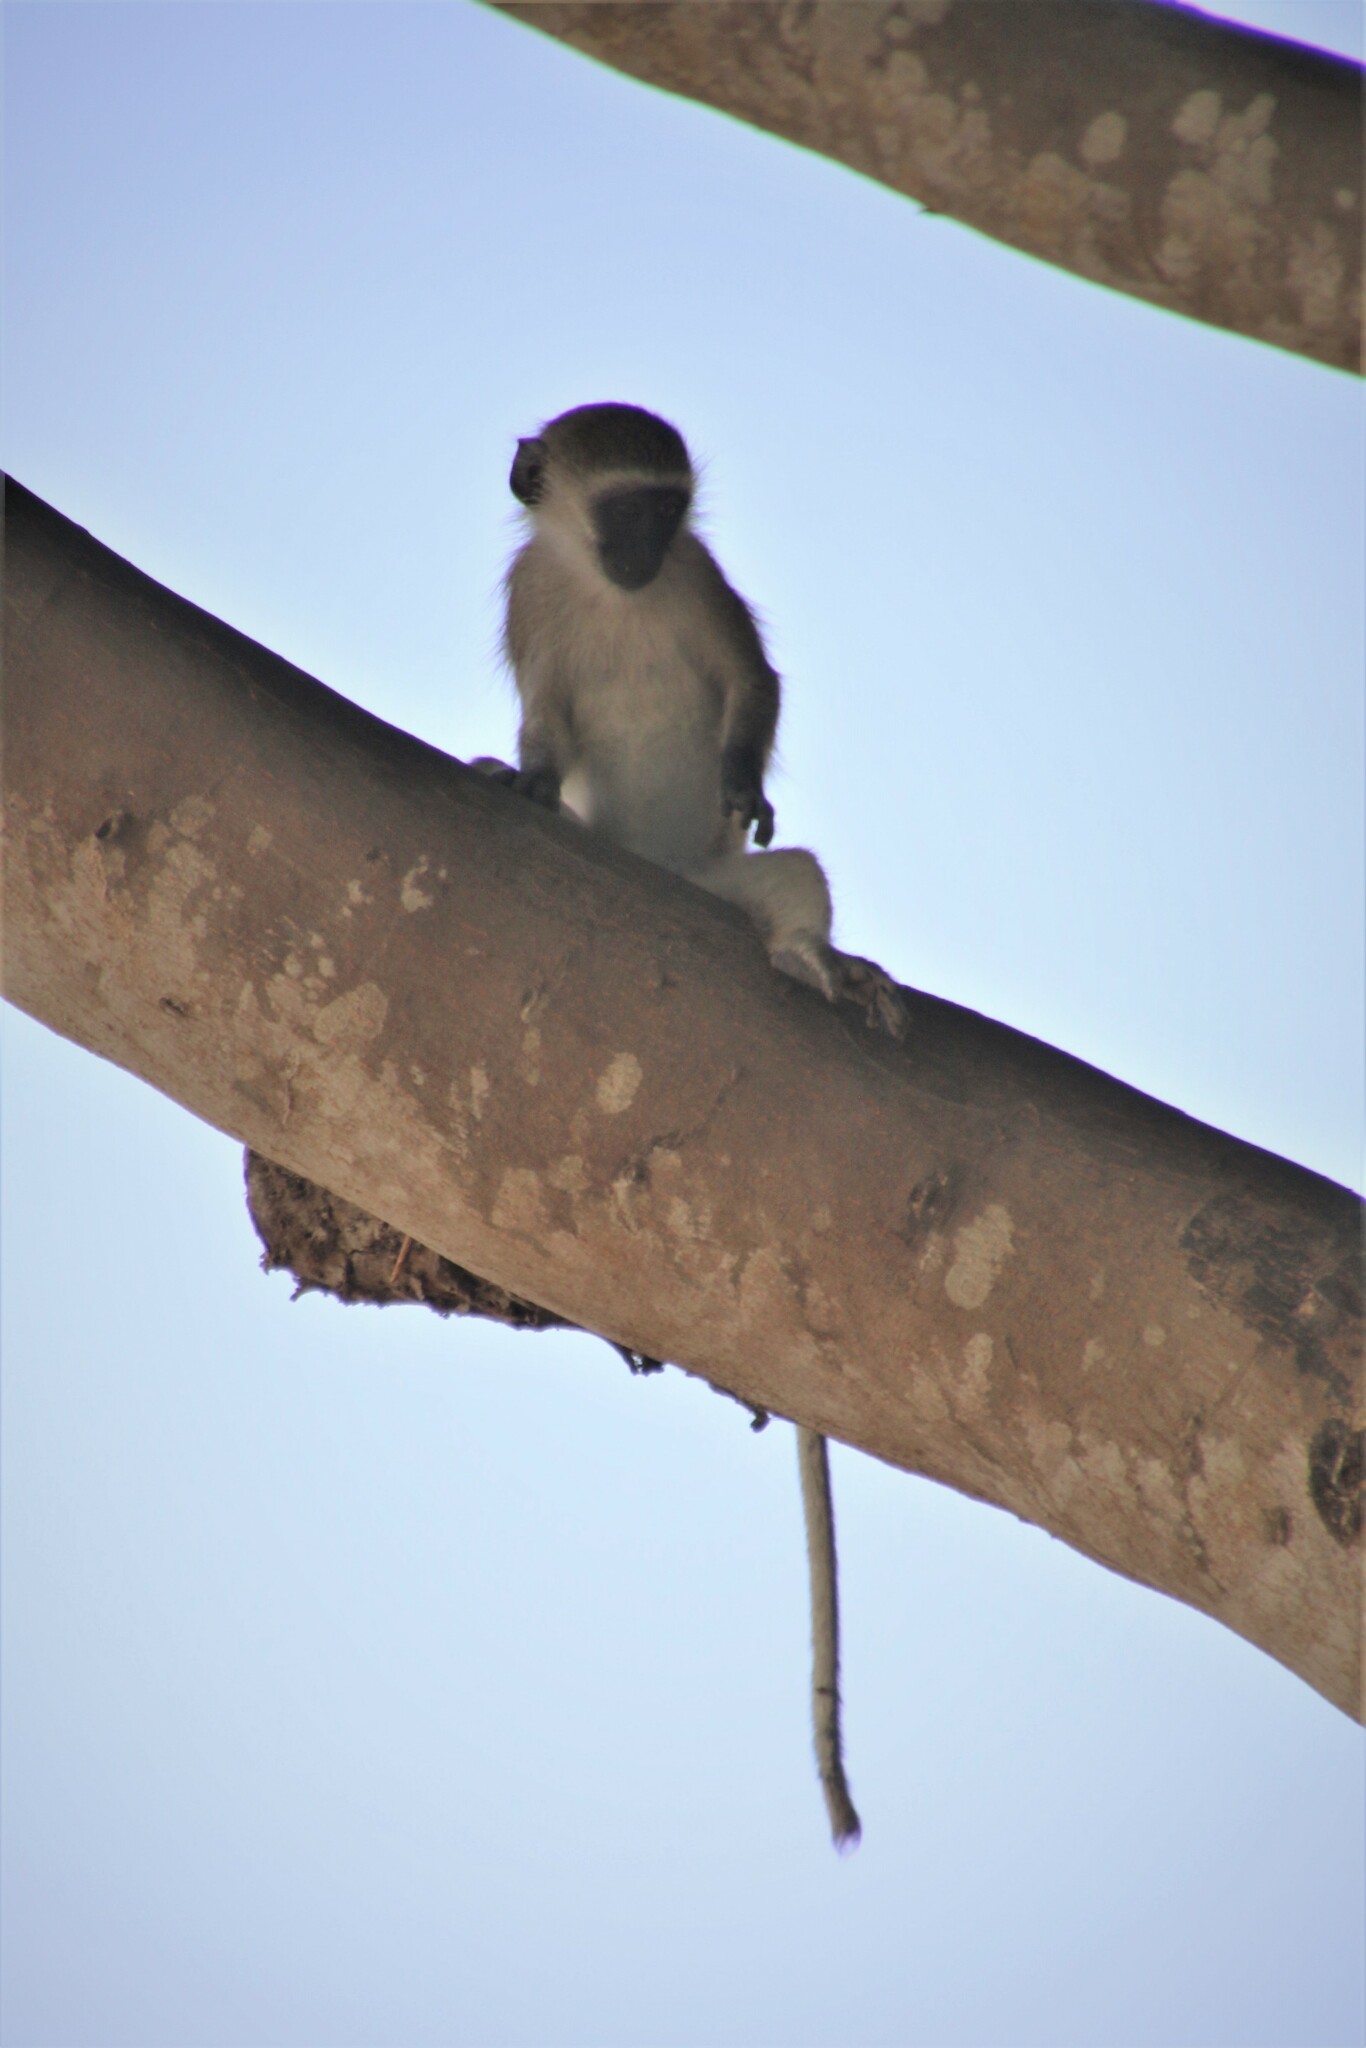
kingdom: Animalia
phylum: Chordata
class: Mammalia
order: Primates
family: Cercopithecidae
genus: Chlorocebus
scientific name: Chlorocebus pygerythrus
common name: Vervet monkey
